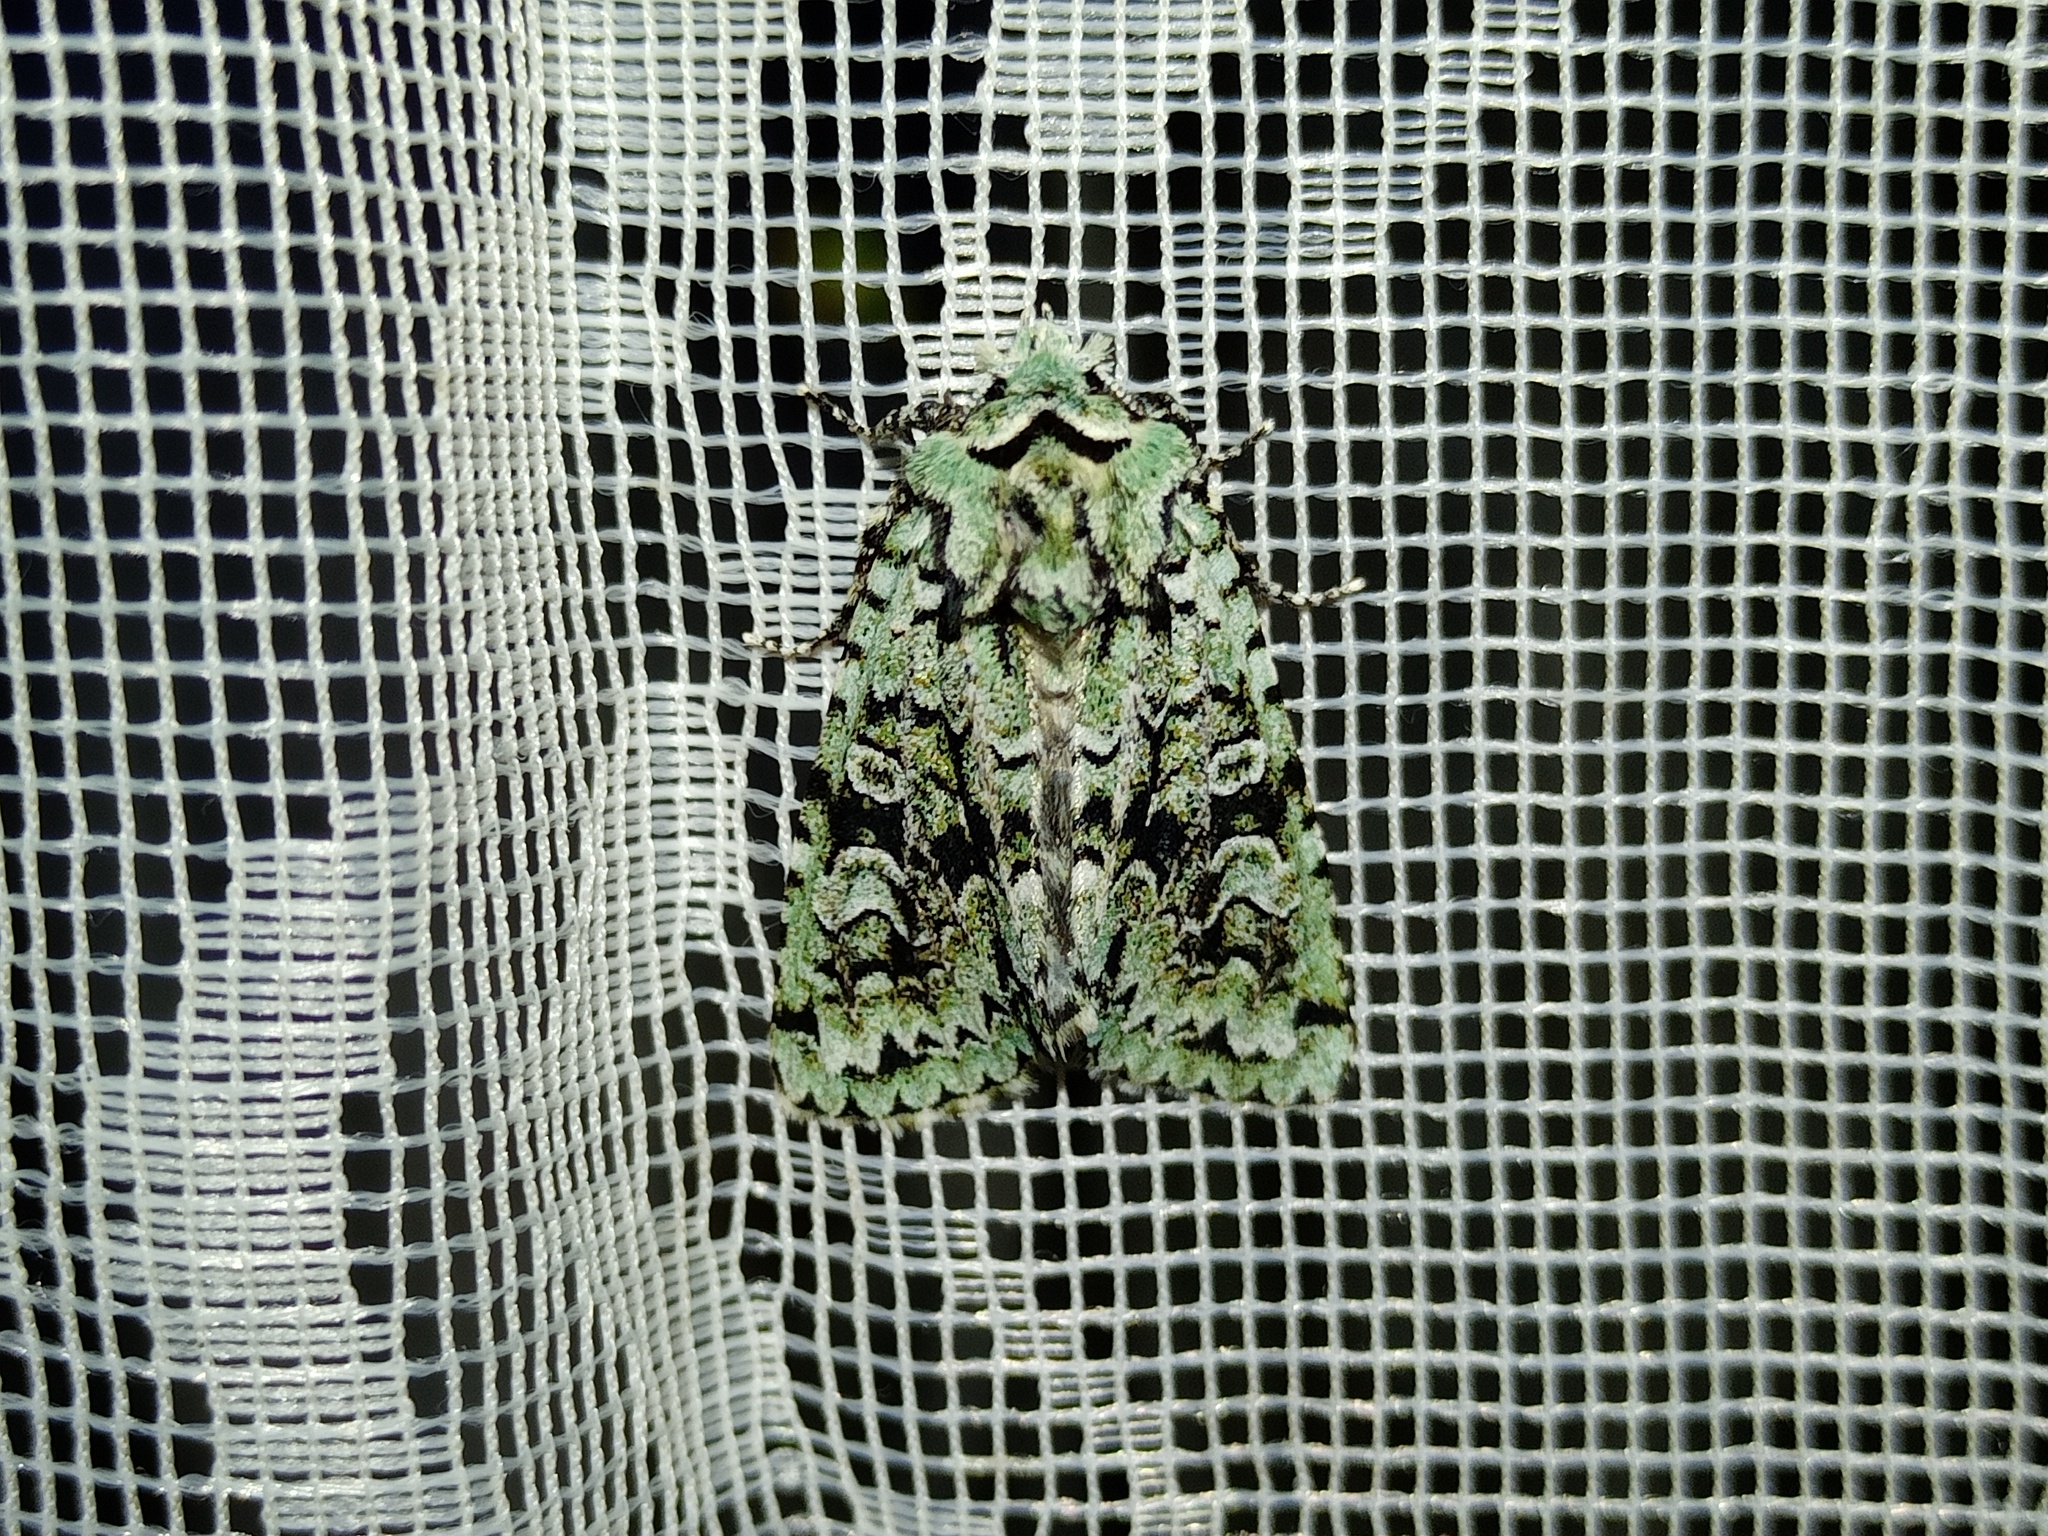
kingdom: Animalia
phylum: Arthropoda
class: Insecta
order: Lepidoptera
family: Noctuidae
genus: Griposia
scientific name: Griposia aprilina
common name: Merveille du jour
